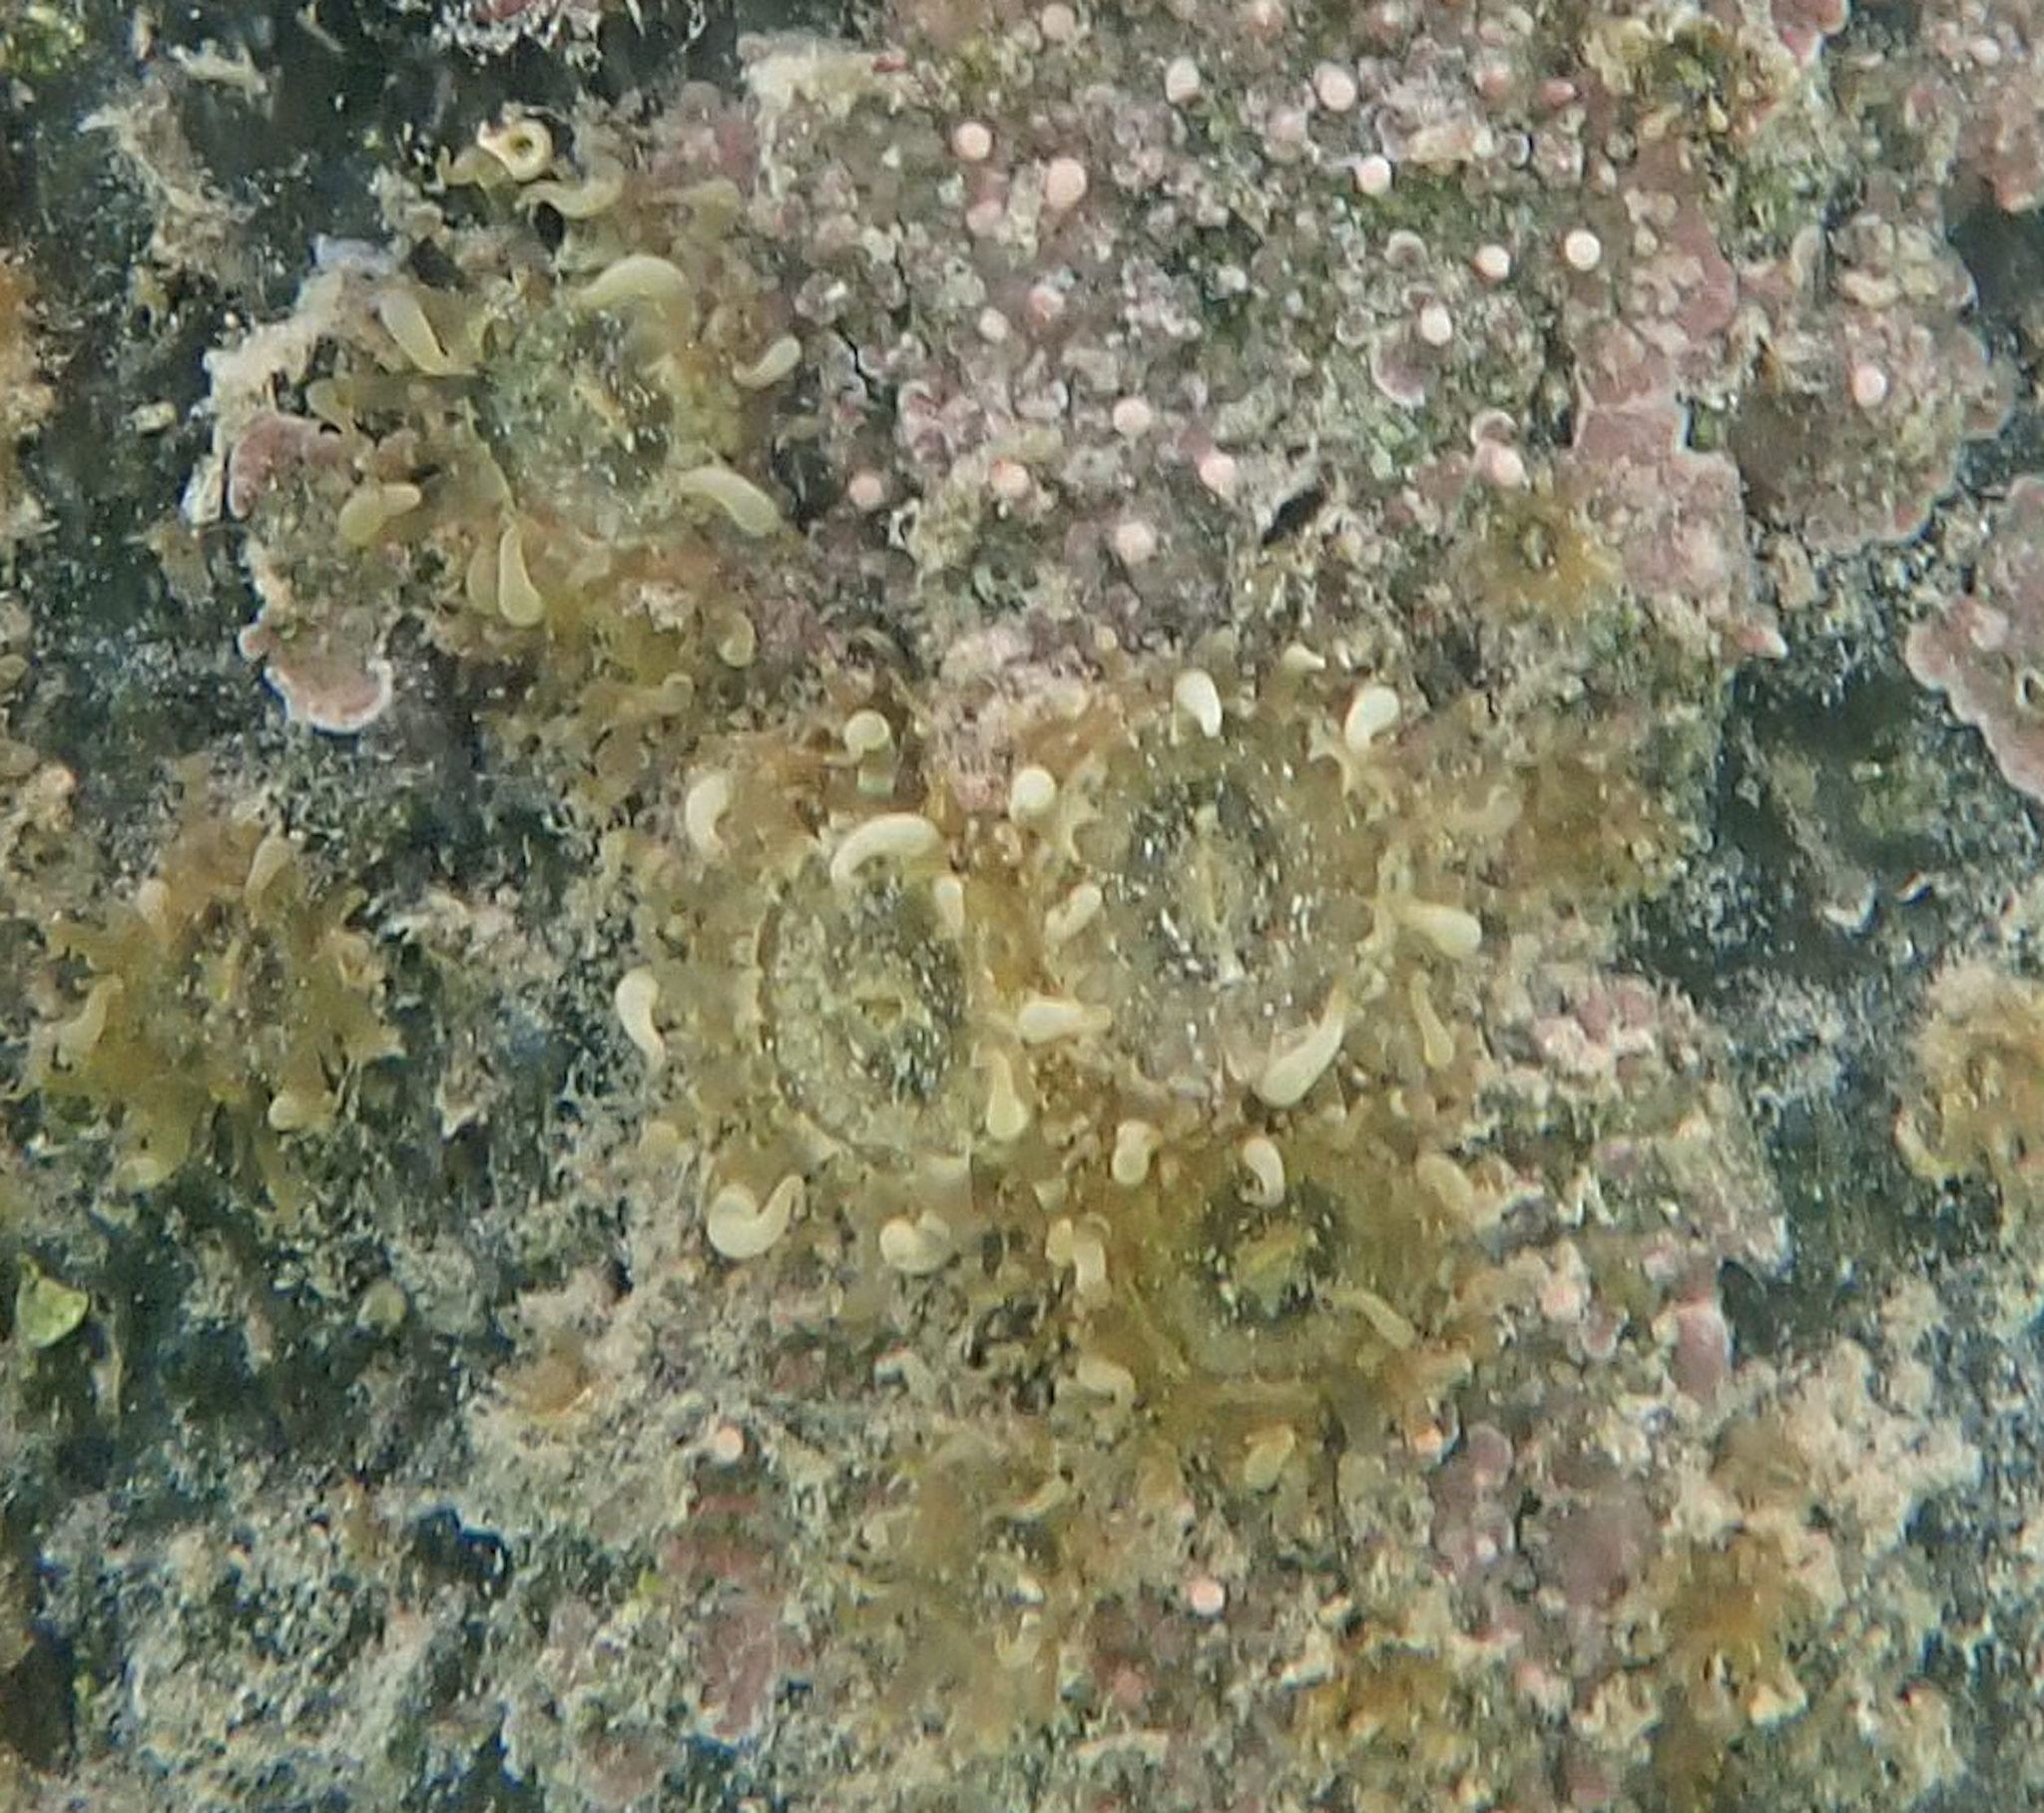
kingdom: Animalia
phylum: Cnidaria
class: Anthozoa
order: Actiniaria
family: Aiptasiidae
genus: Exaiptasia
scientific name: Exaiptasia diaphana
